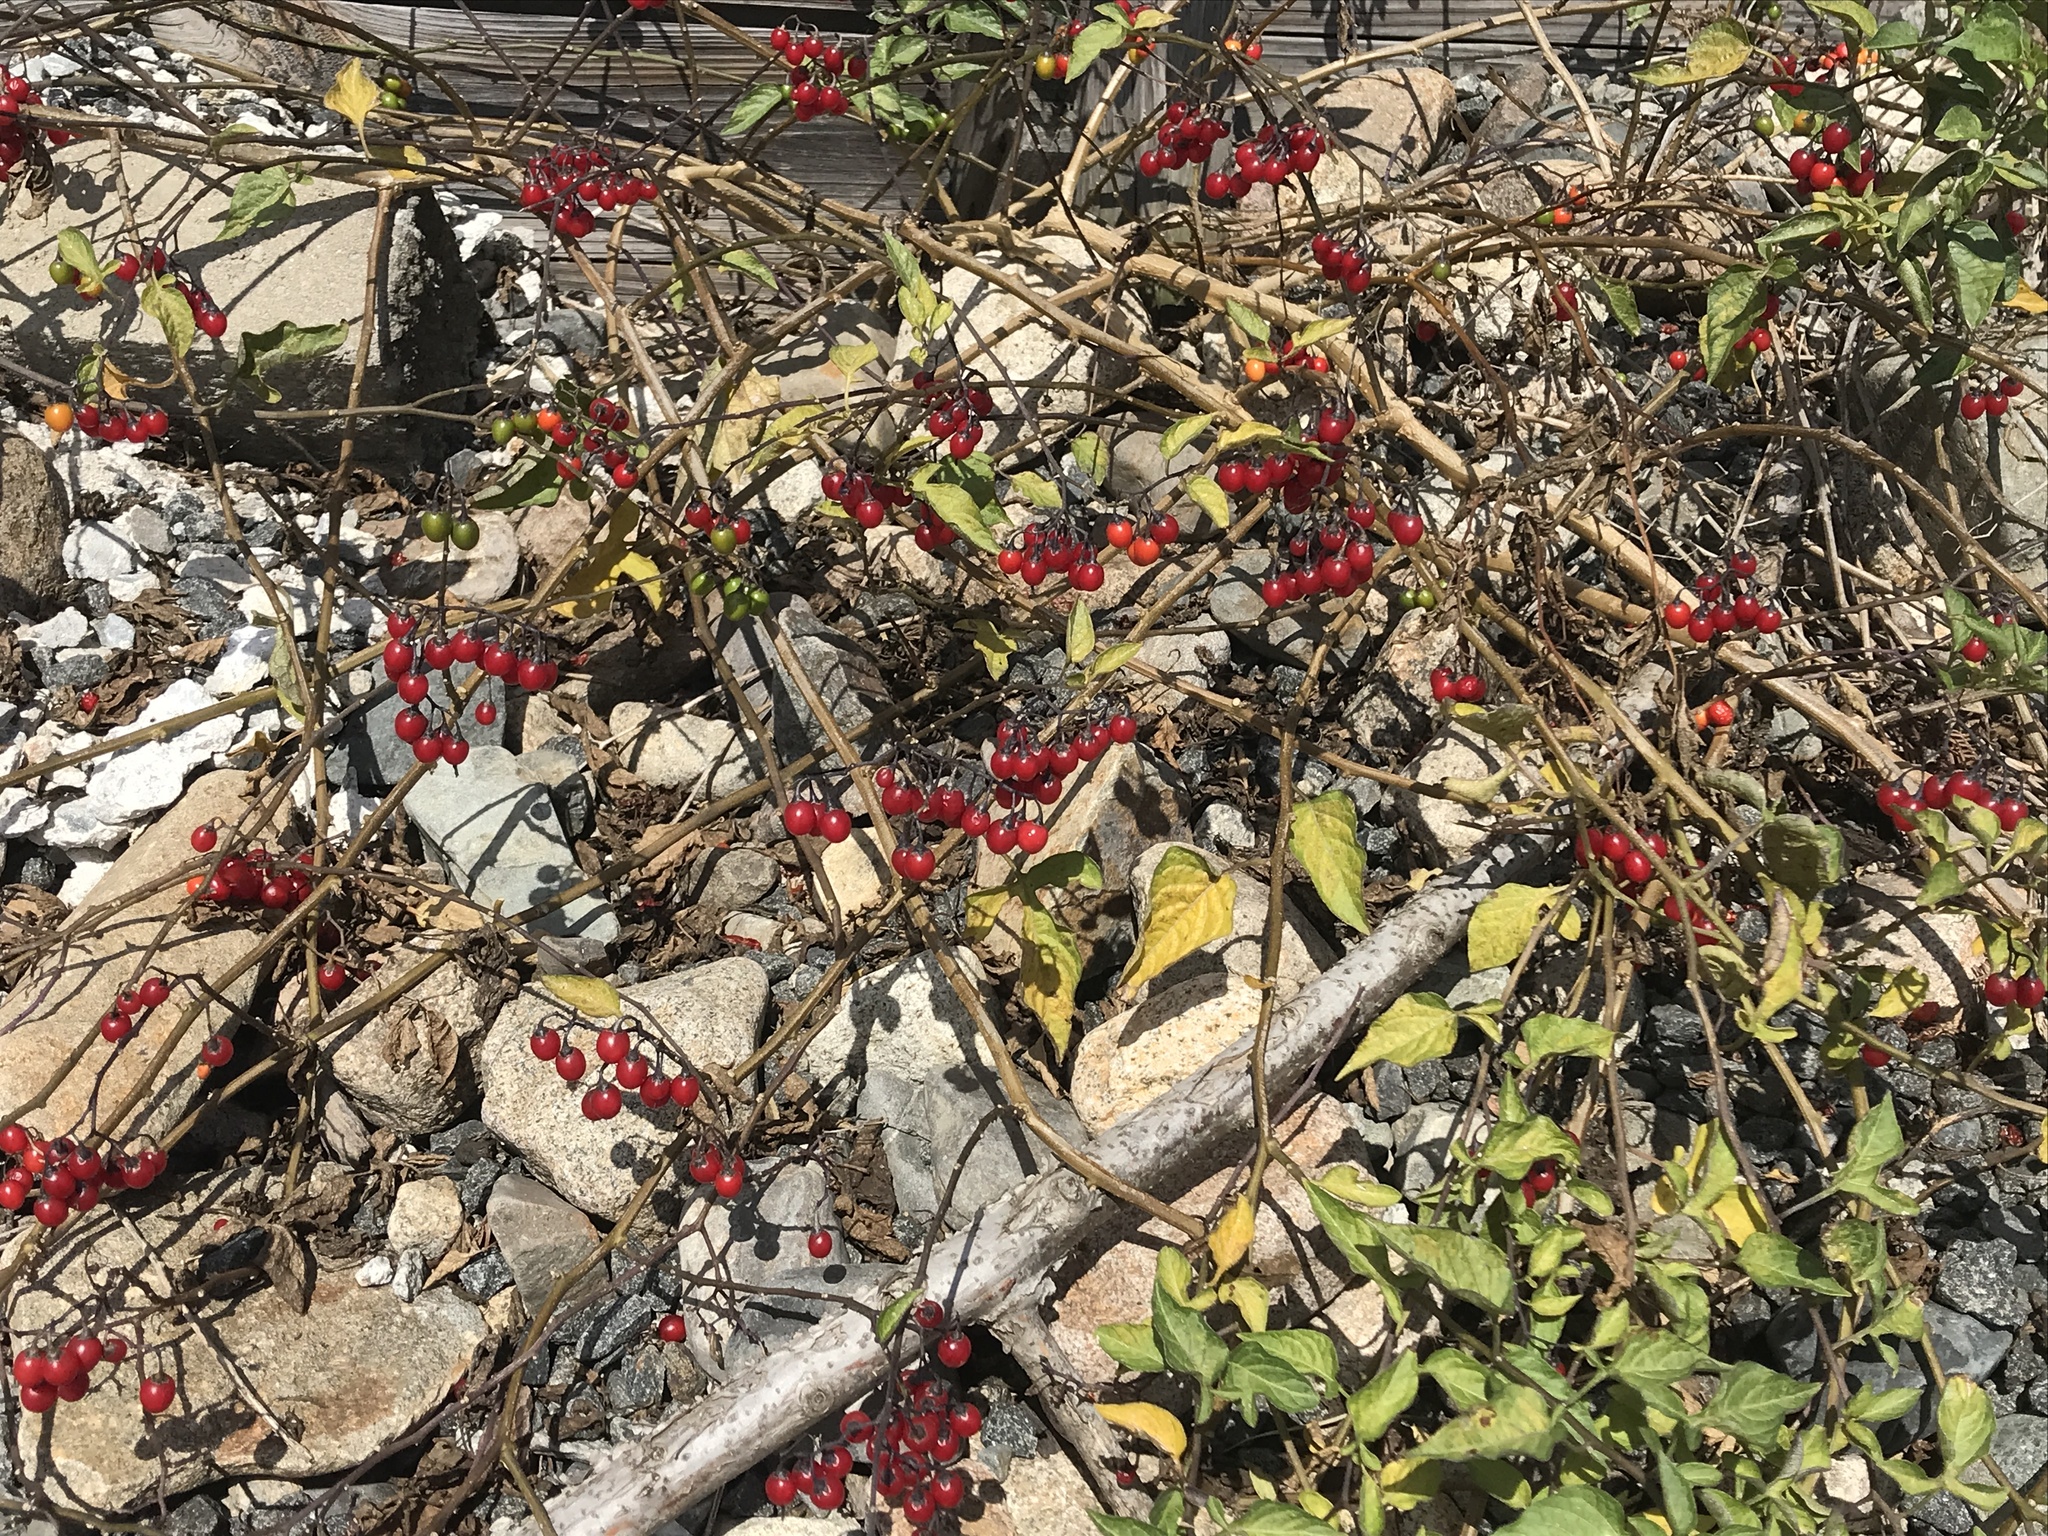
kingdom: Plantae
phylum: Tracheophyta
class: Magnoliopsida
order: Solanales
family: Solanaceae
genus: Solanum
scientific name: Solanum dulcamara
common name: Climbing nightshade
